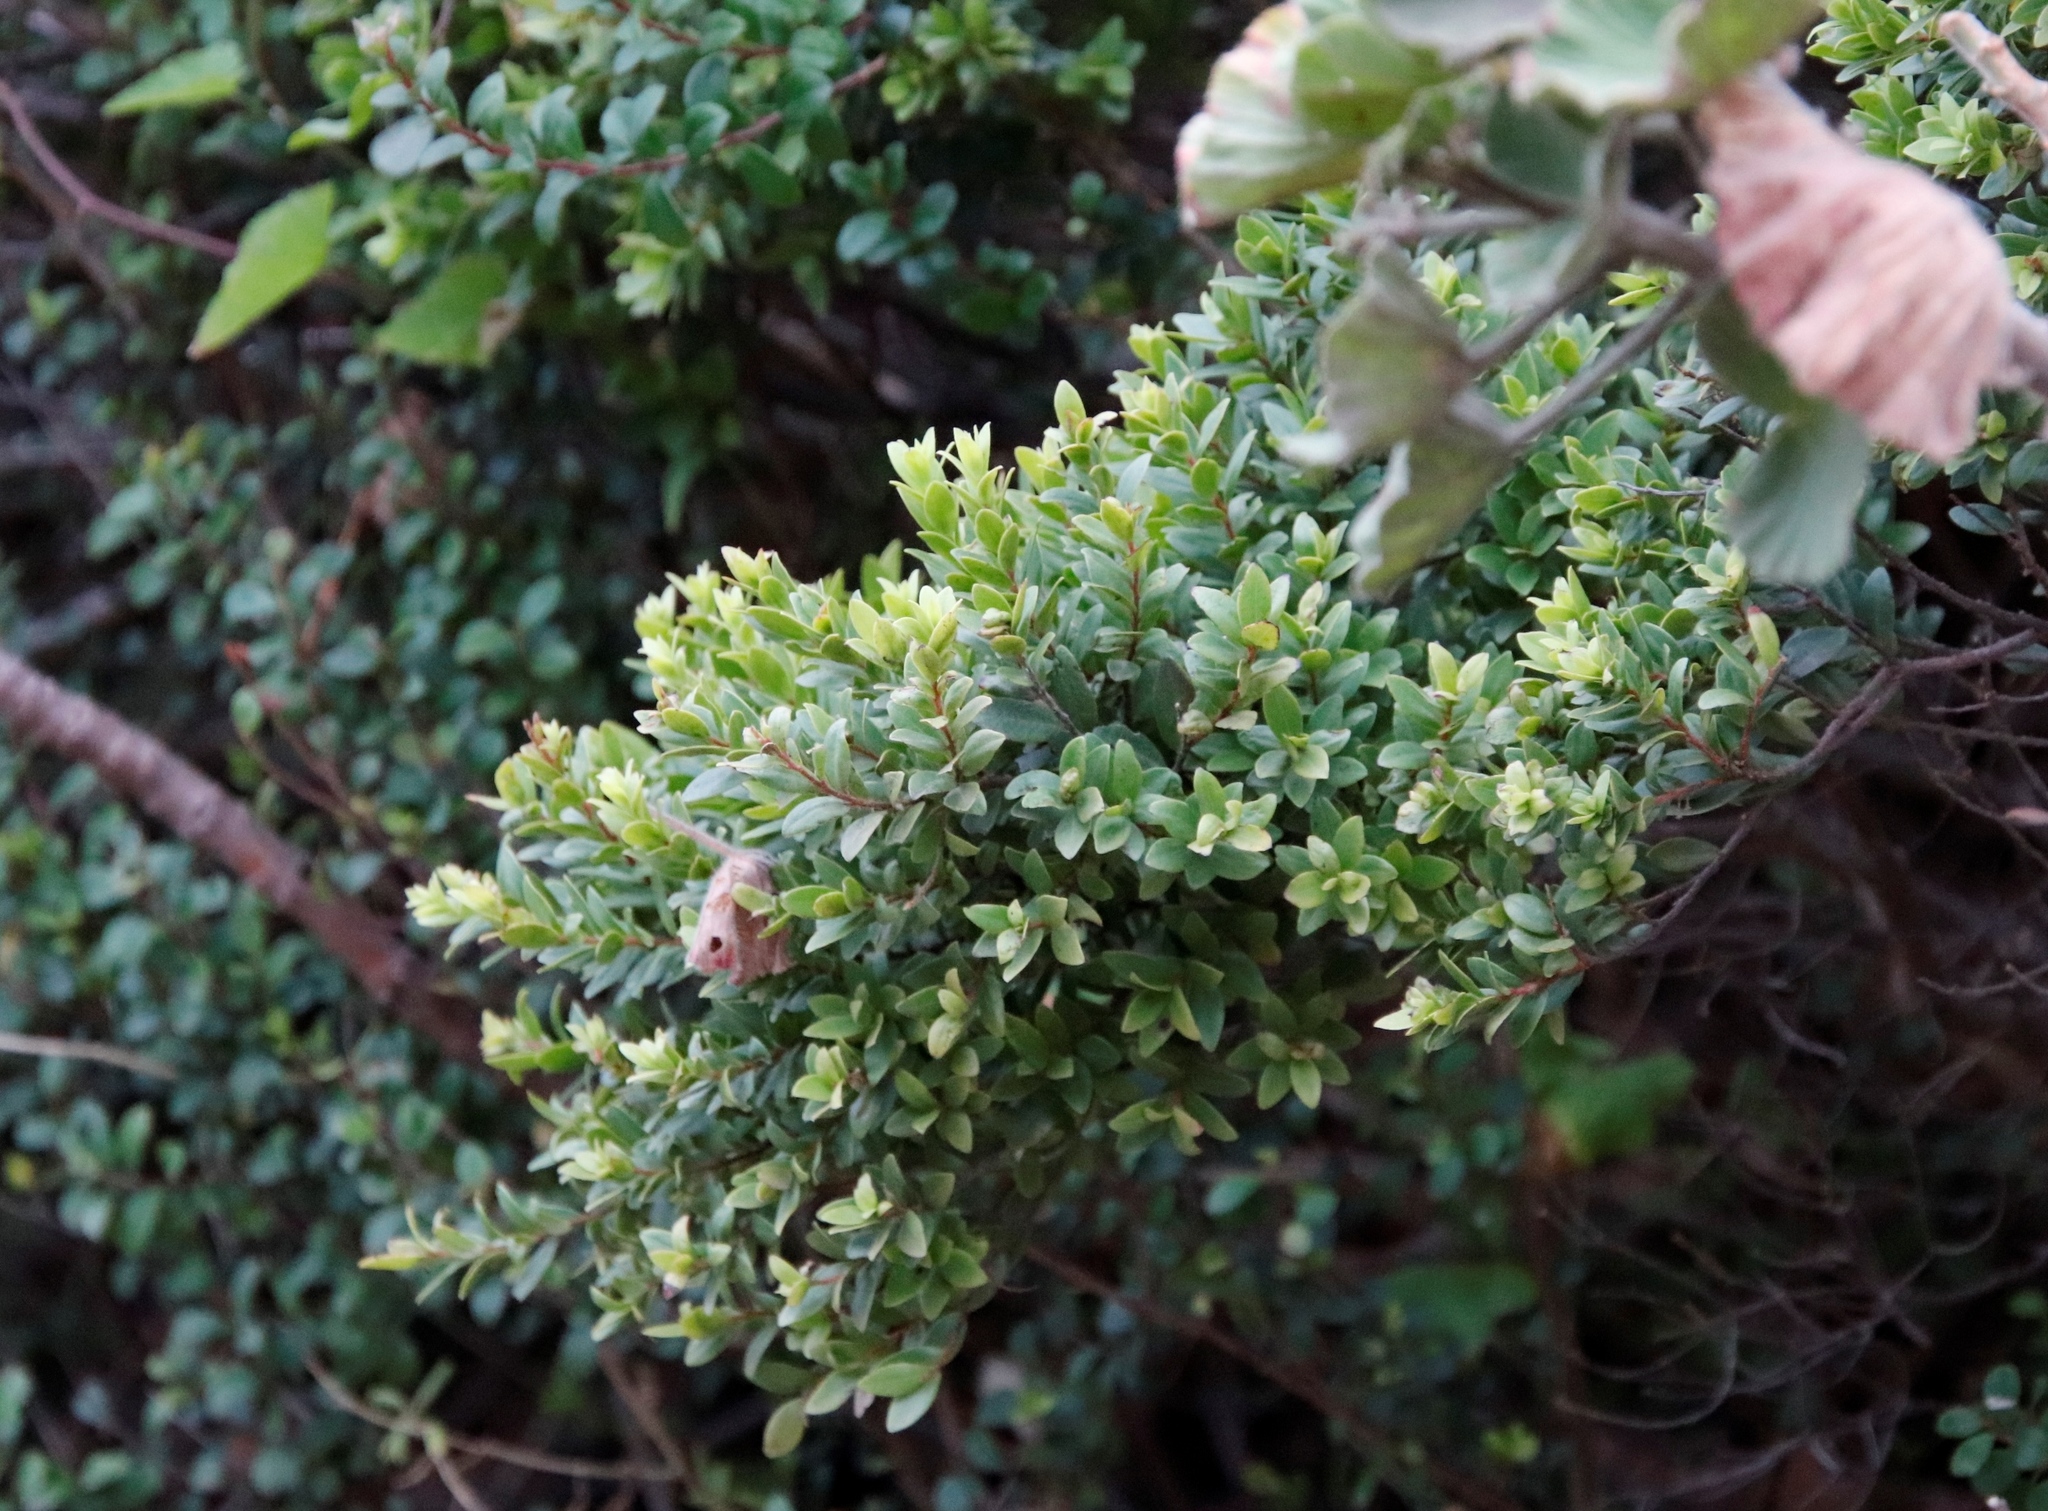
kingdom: Plantae
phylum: Tracheophyta
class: Magnoliopsida
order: Ericales
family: Ebenaceae
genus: Diospyros
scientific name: Diospyros glabra
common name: Fynbos star apple
